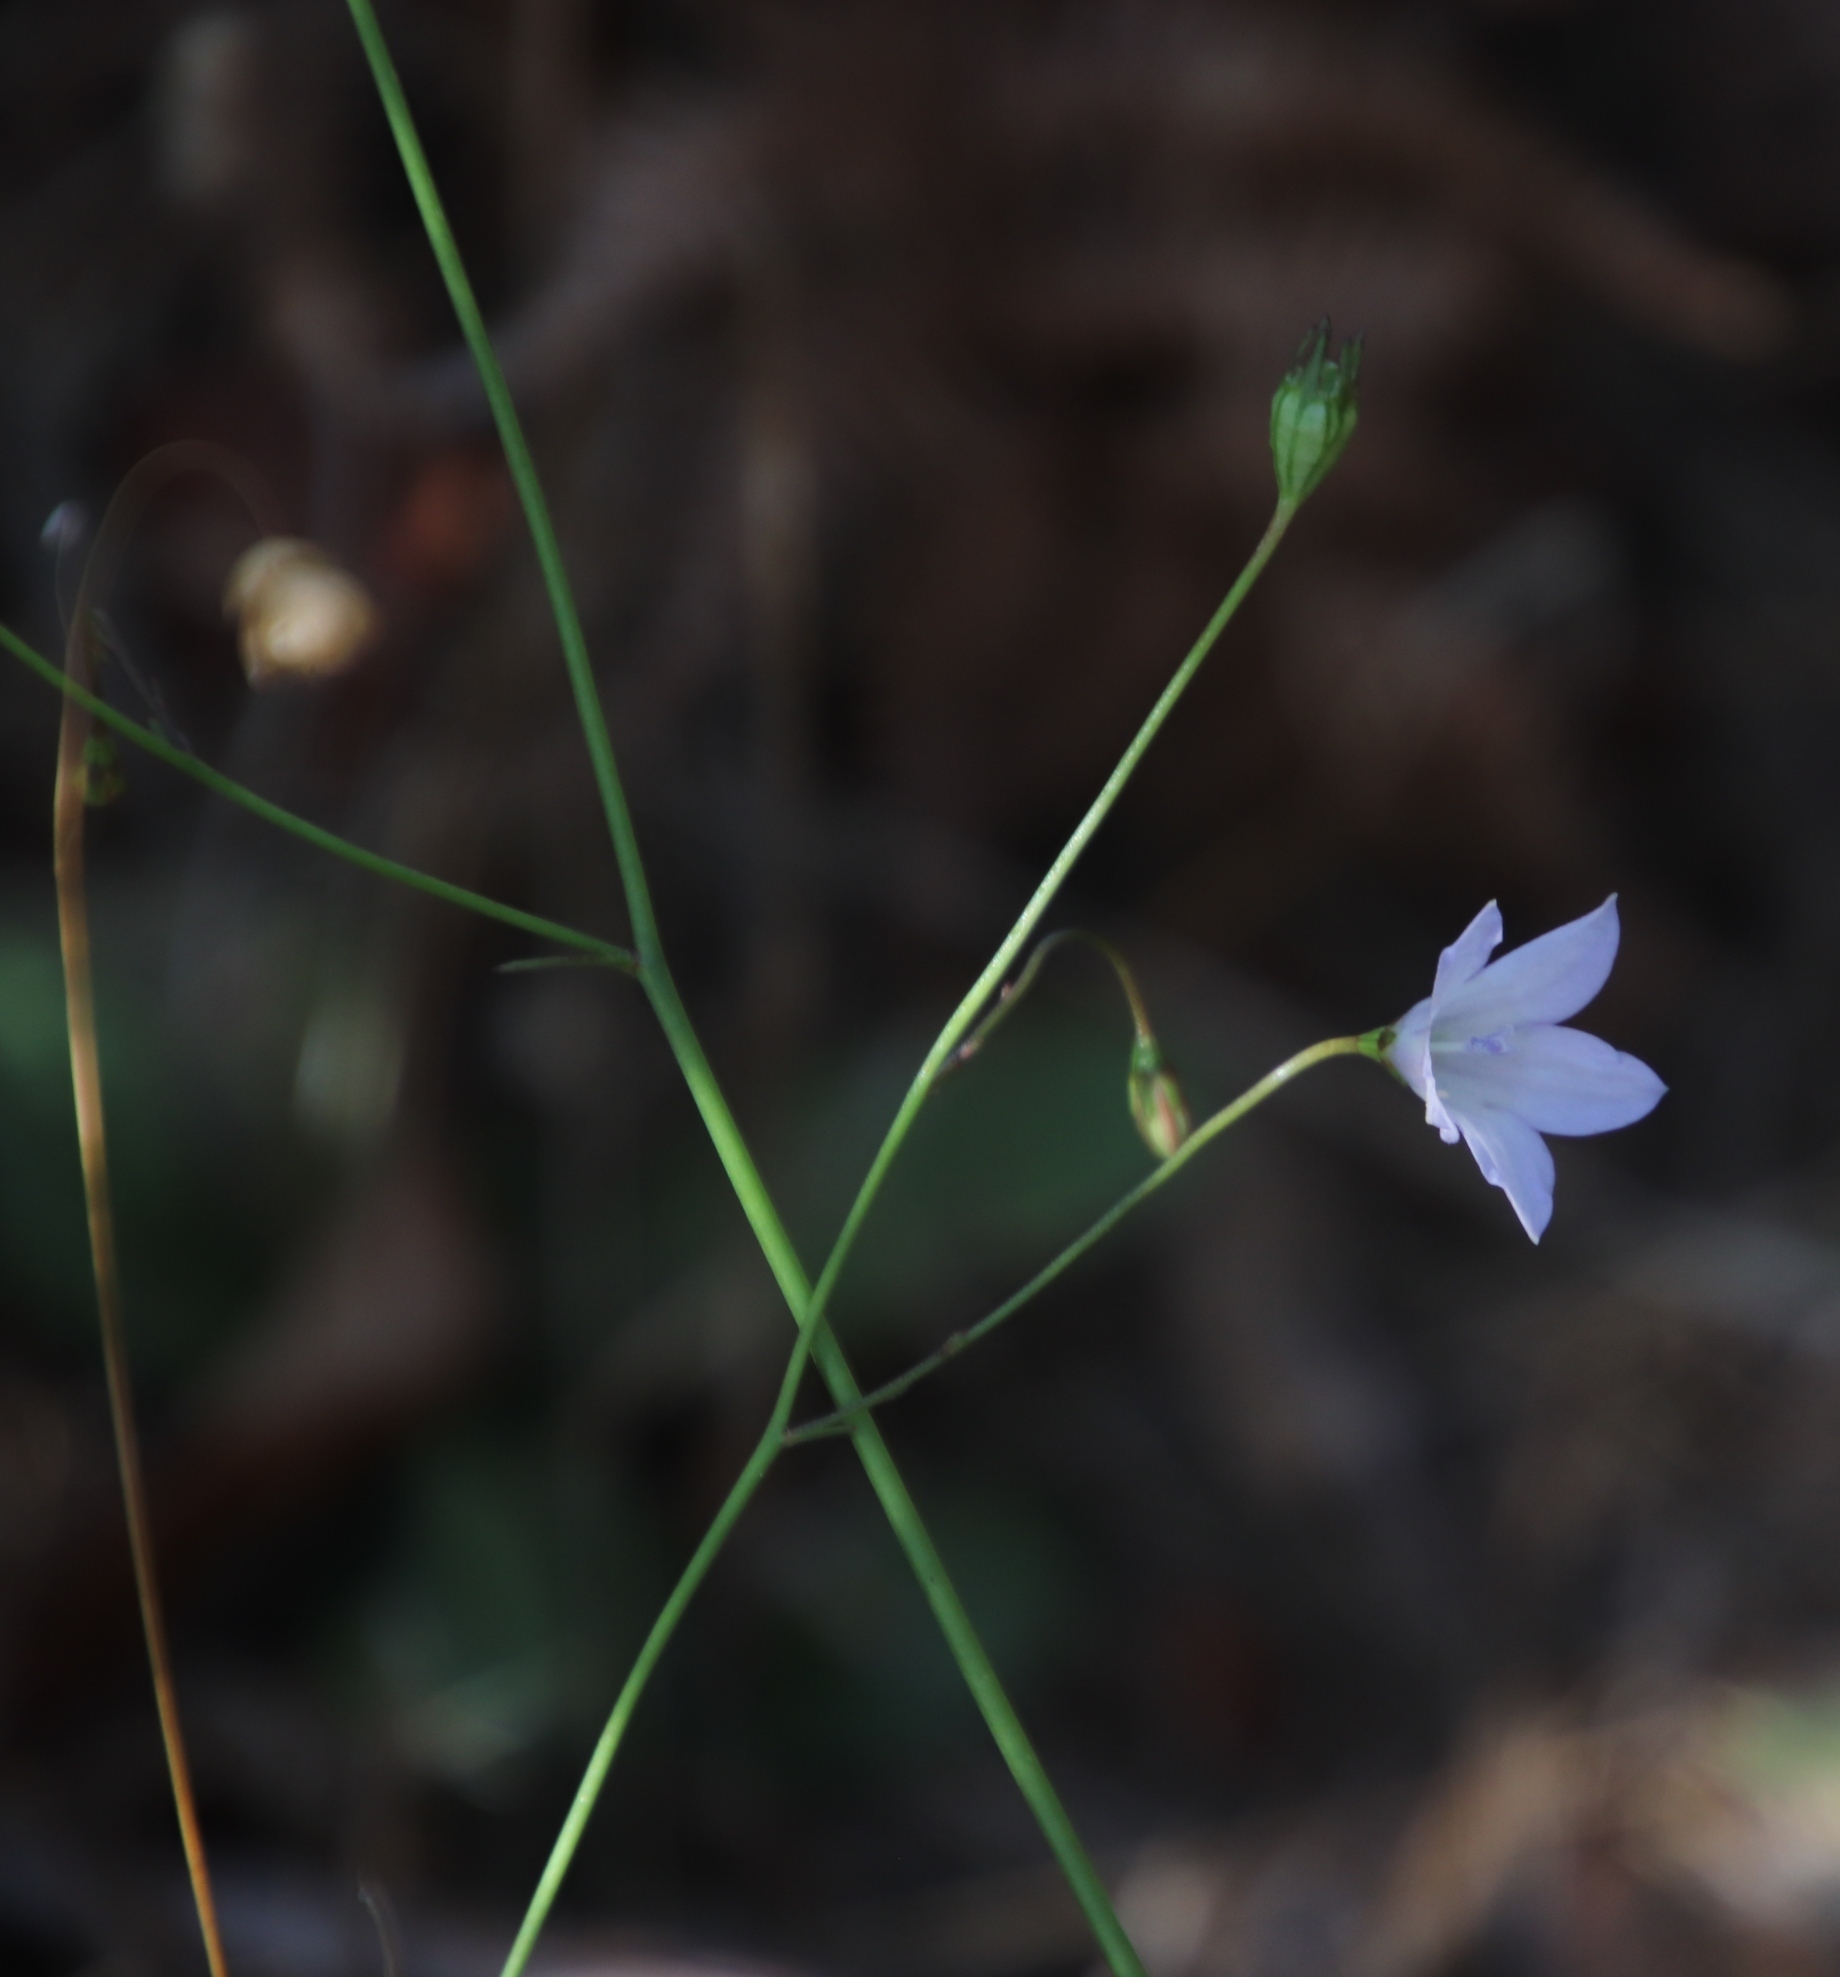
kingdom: Plantae
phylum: Tracheophyta
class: Magnoliopsida
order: Asterales
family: Campanulaceae
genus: Wahlenbergia
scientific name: Wahlenbergia obovata
